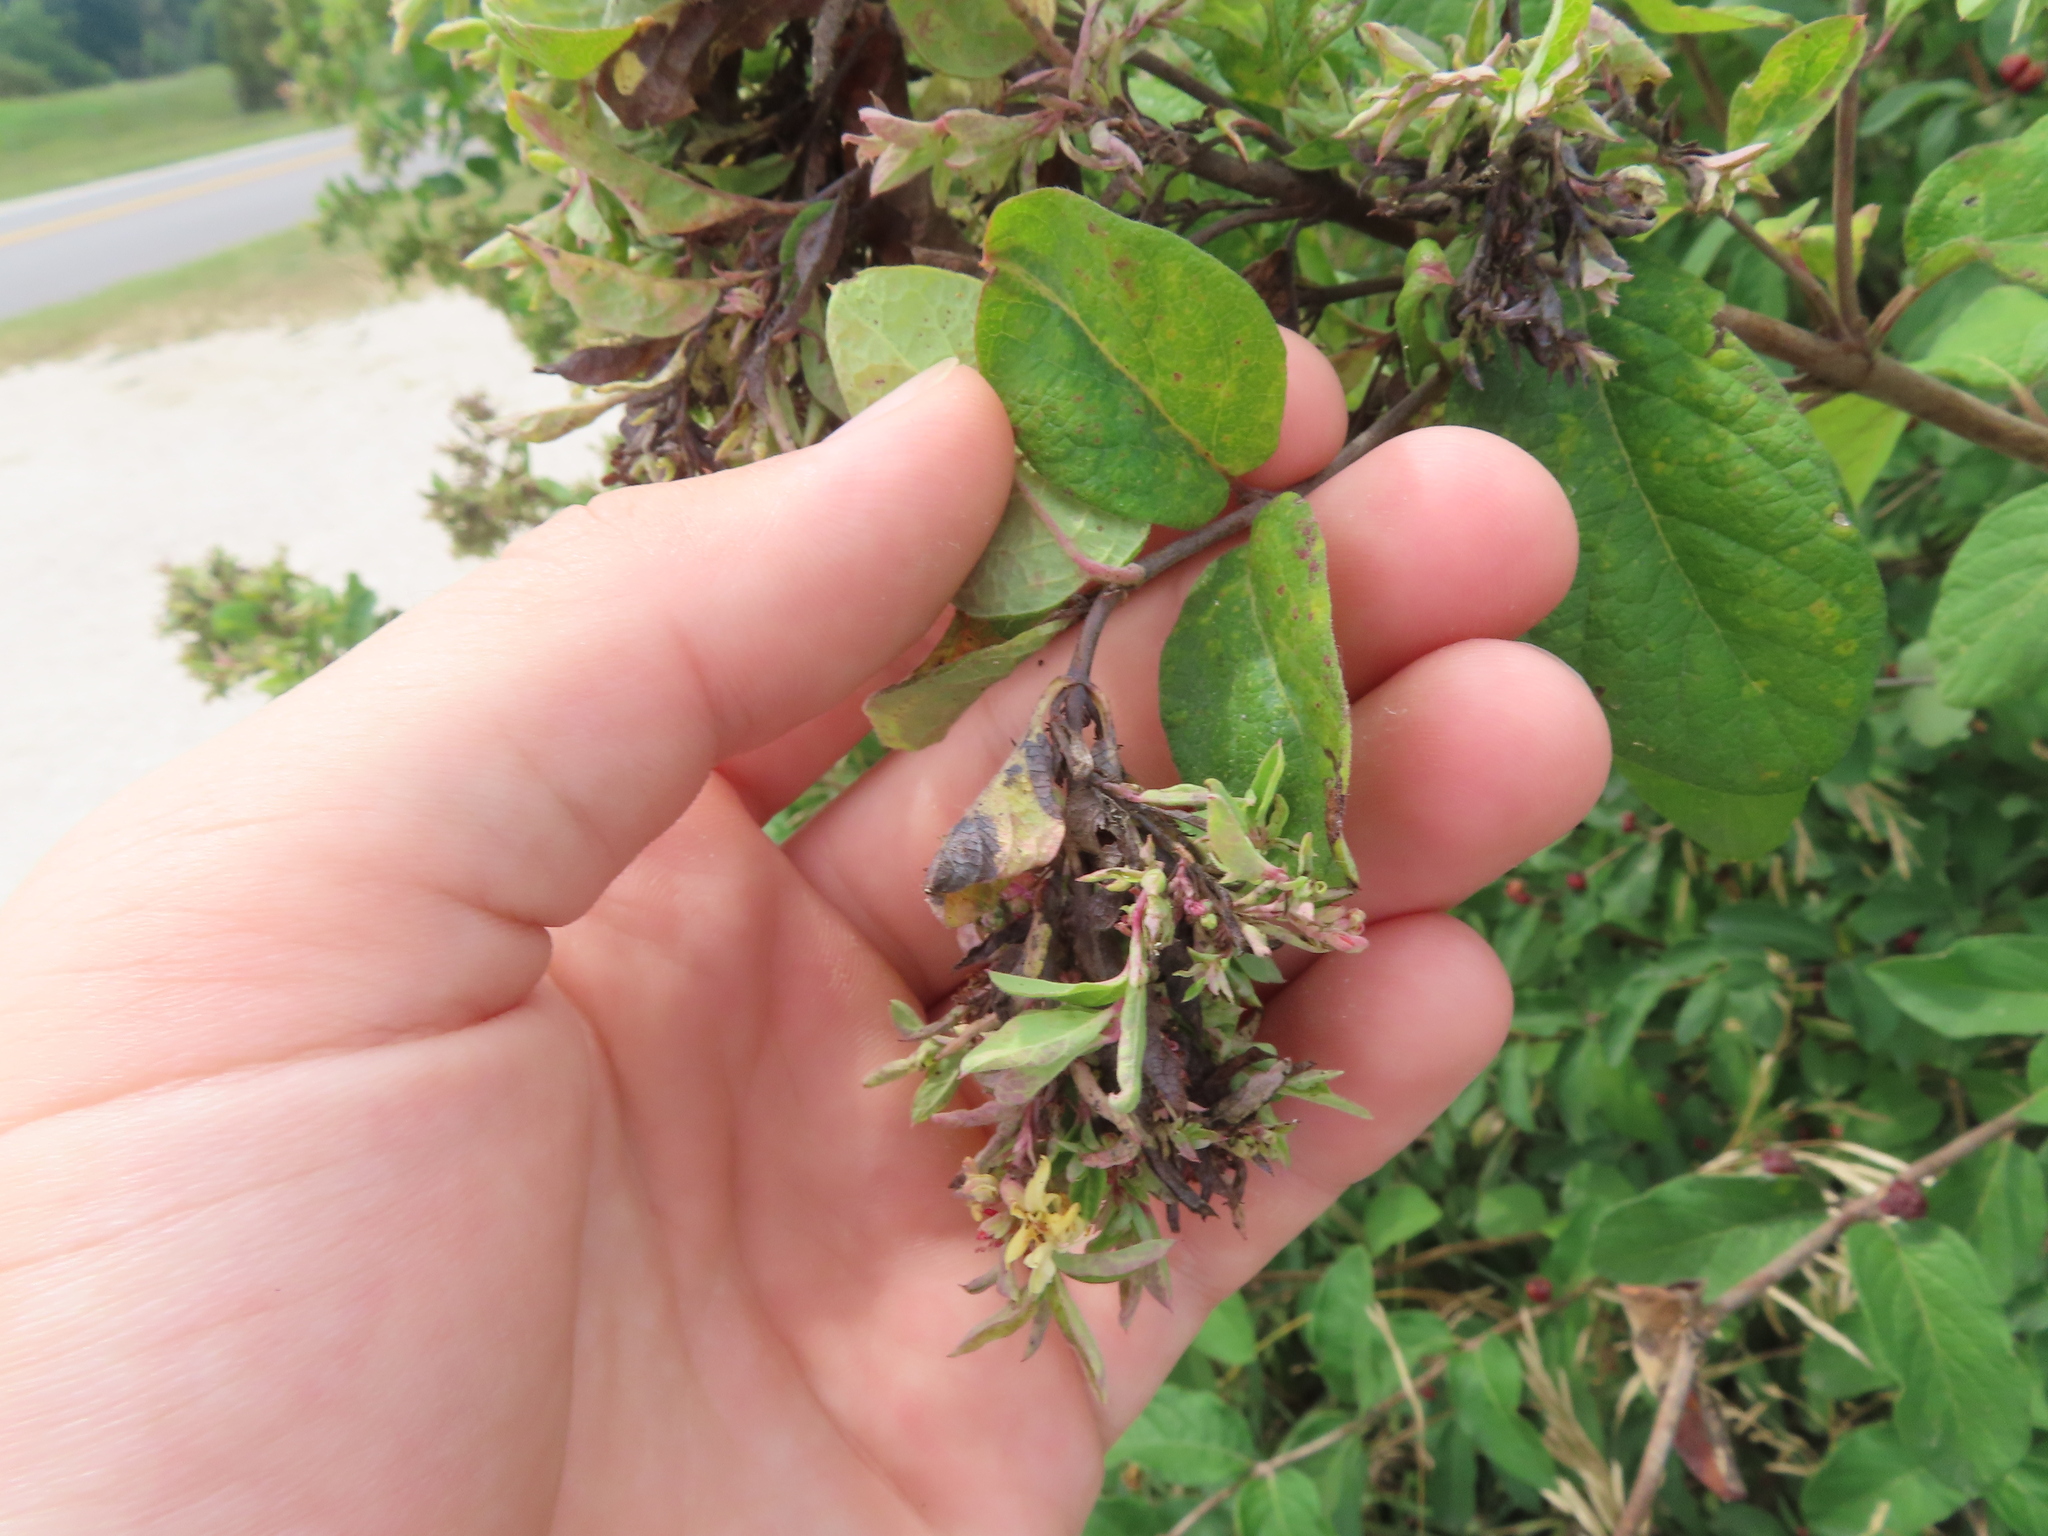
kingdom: Animalia
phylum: Arthropoda
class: Insecta
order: Hemiptera
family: Aphididae
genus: Hyadaphis
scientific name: Hyadaphis tataricae
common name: Honeysuckle witches' broom aphid
